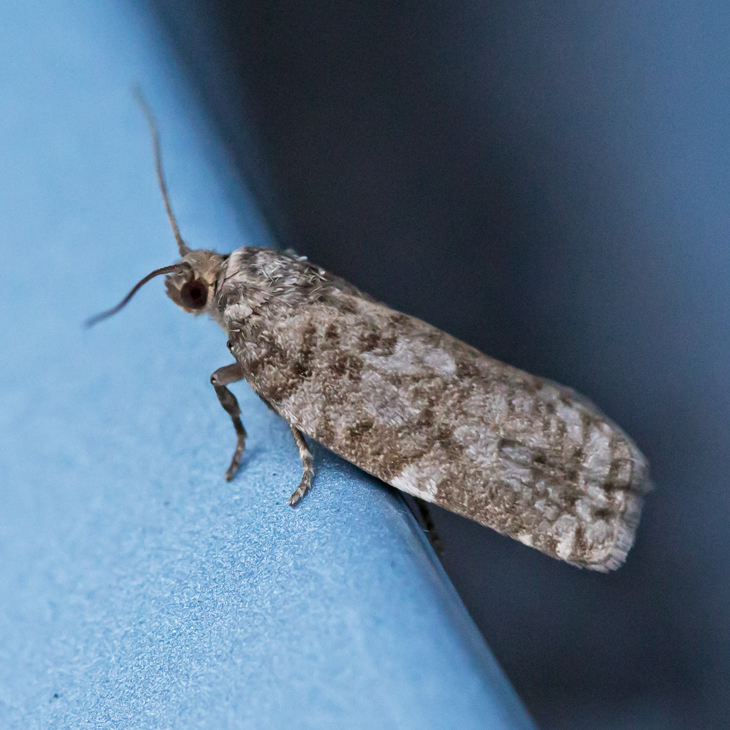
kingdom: Animalia
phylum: Arthropoda
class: Insecta
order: Lepidoptera
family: Tortricidae
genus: Choristoneura
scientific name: Choristoneura fumiferana
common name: Spruce budworm
